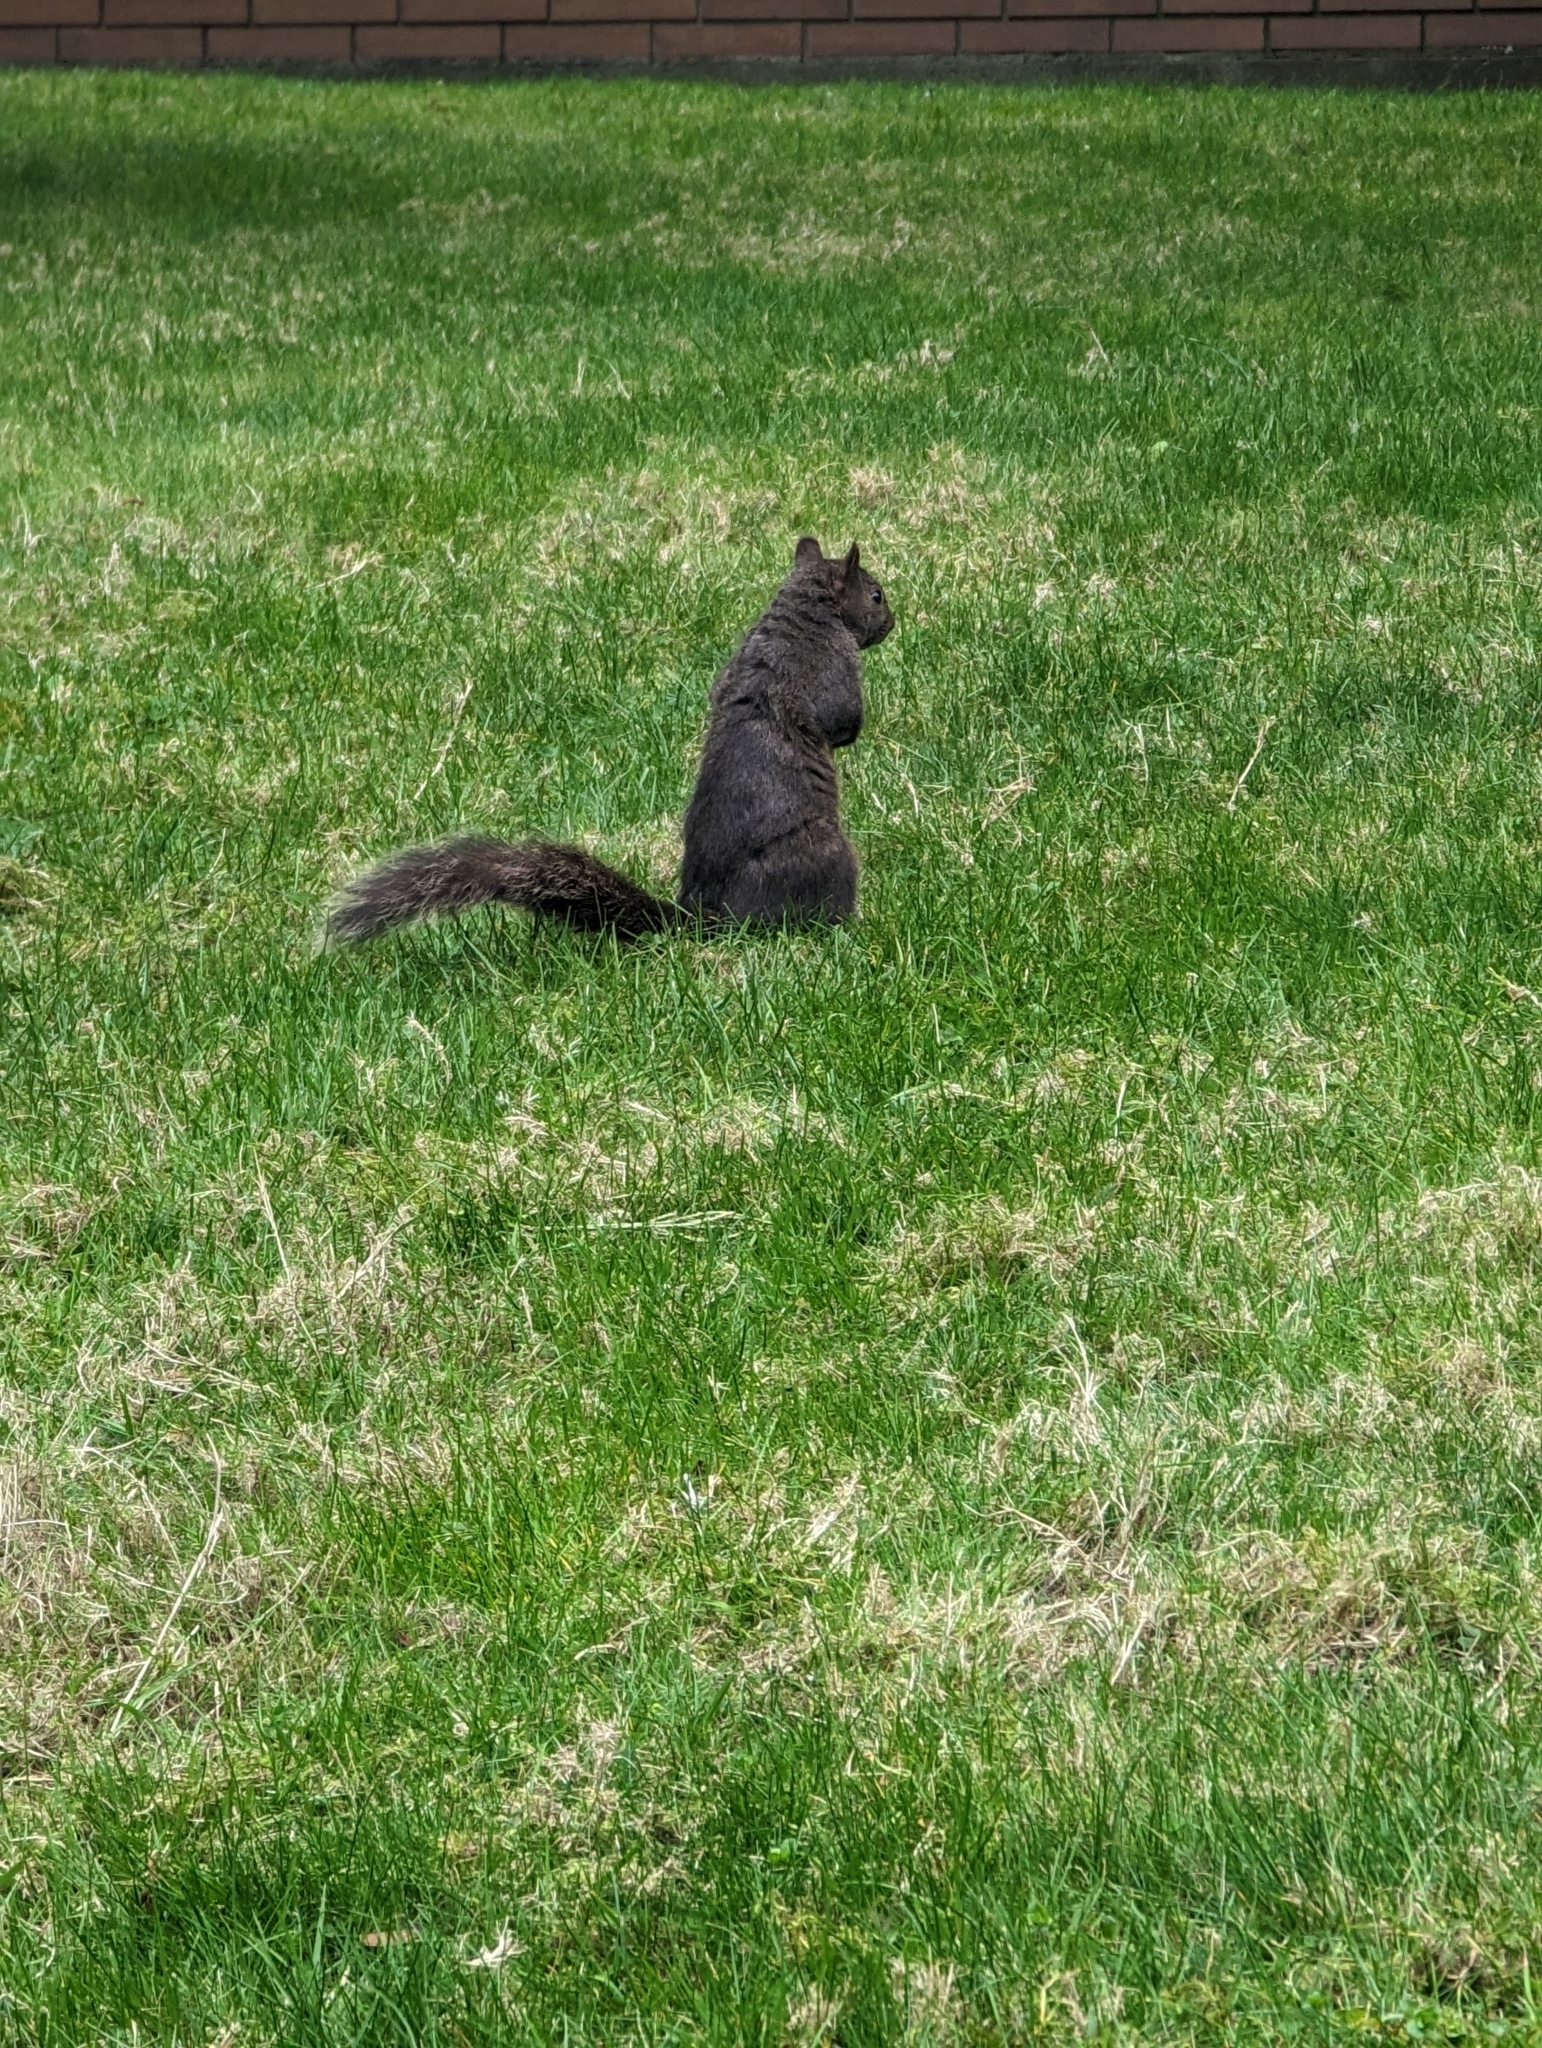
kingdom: Animalia
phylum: Chordata
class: Mammalia
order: Rodentia
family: Sciuridae
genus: Sciurus
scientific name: Sciurus carolinensis
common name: Eastern gray squirrel
